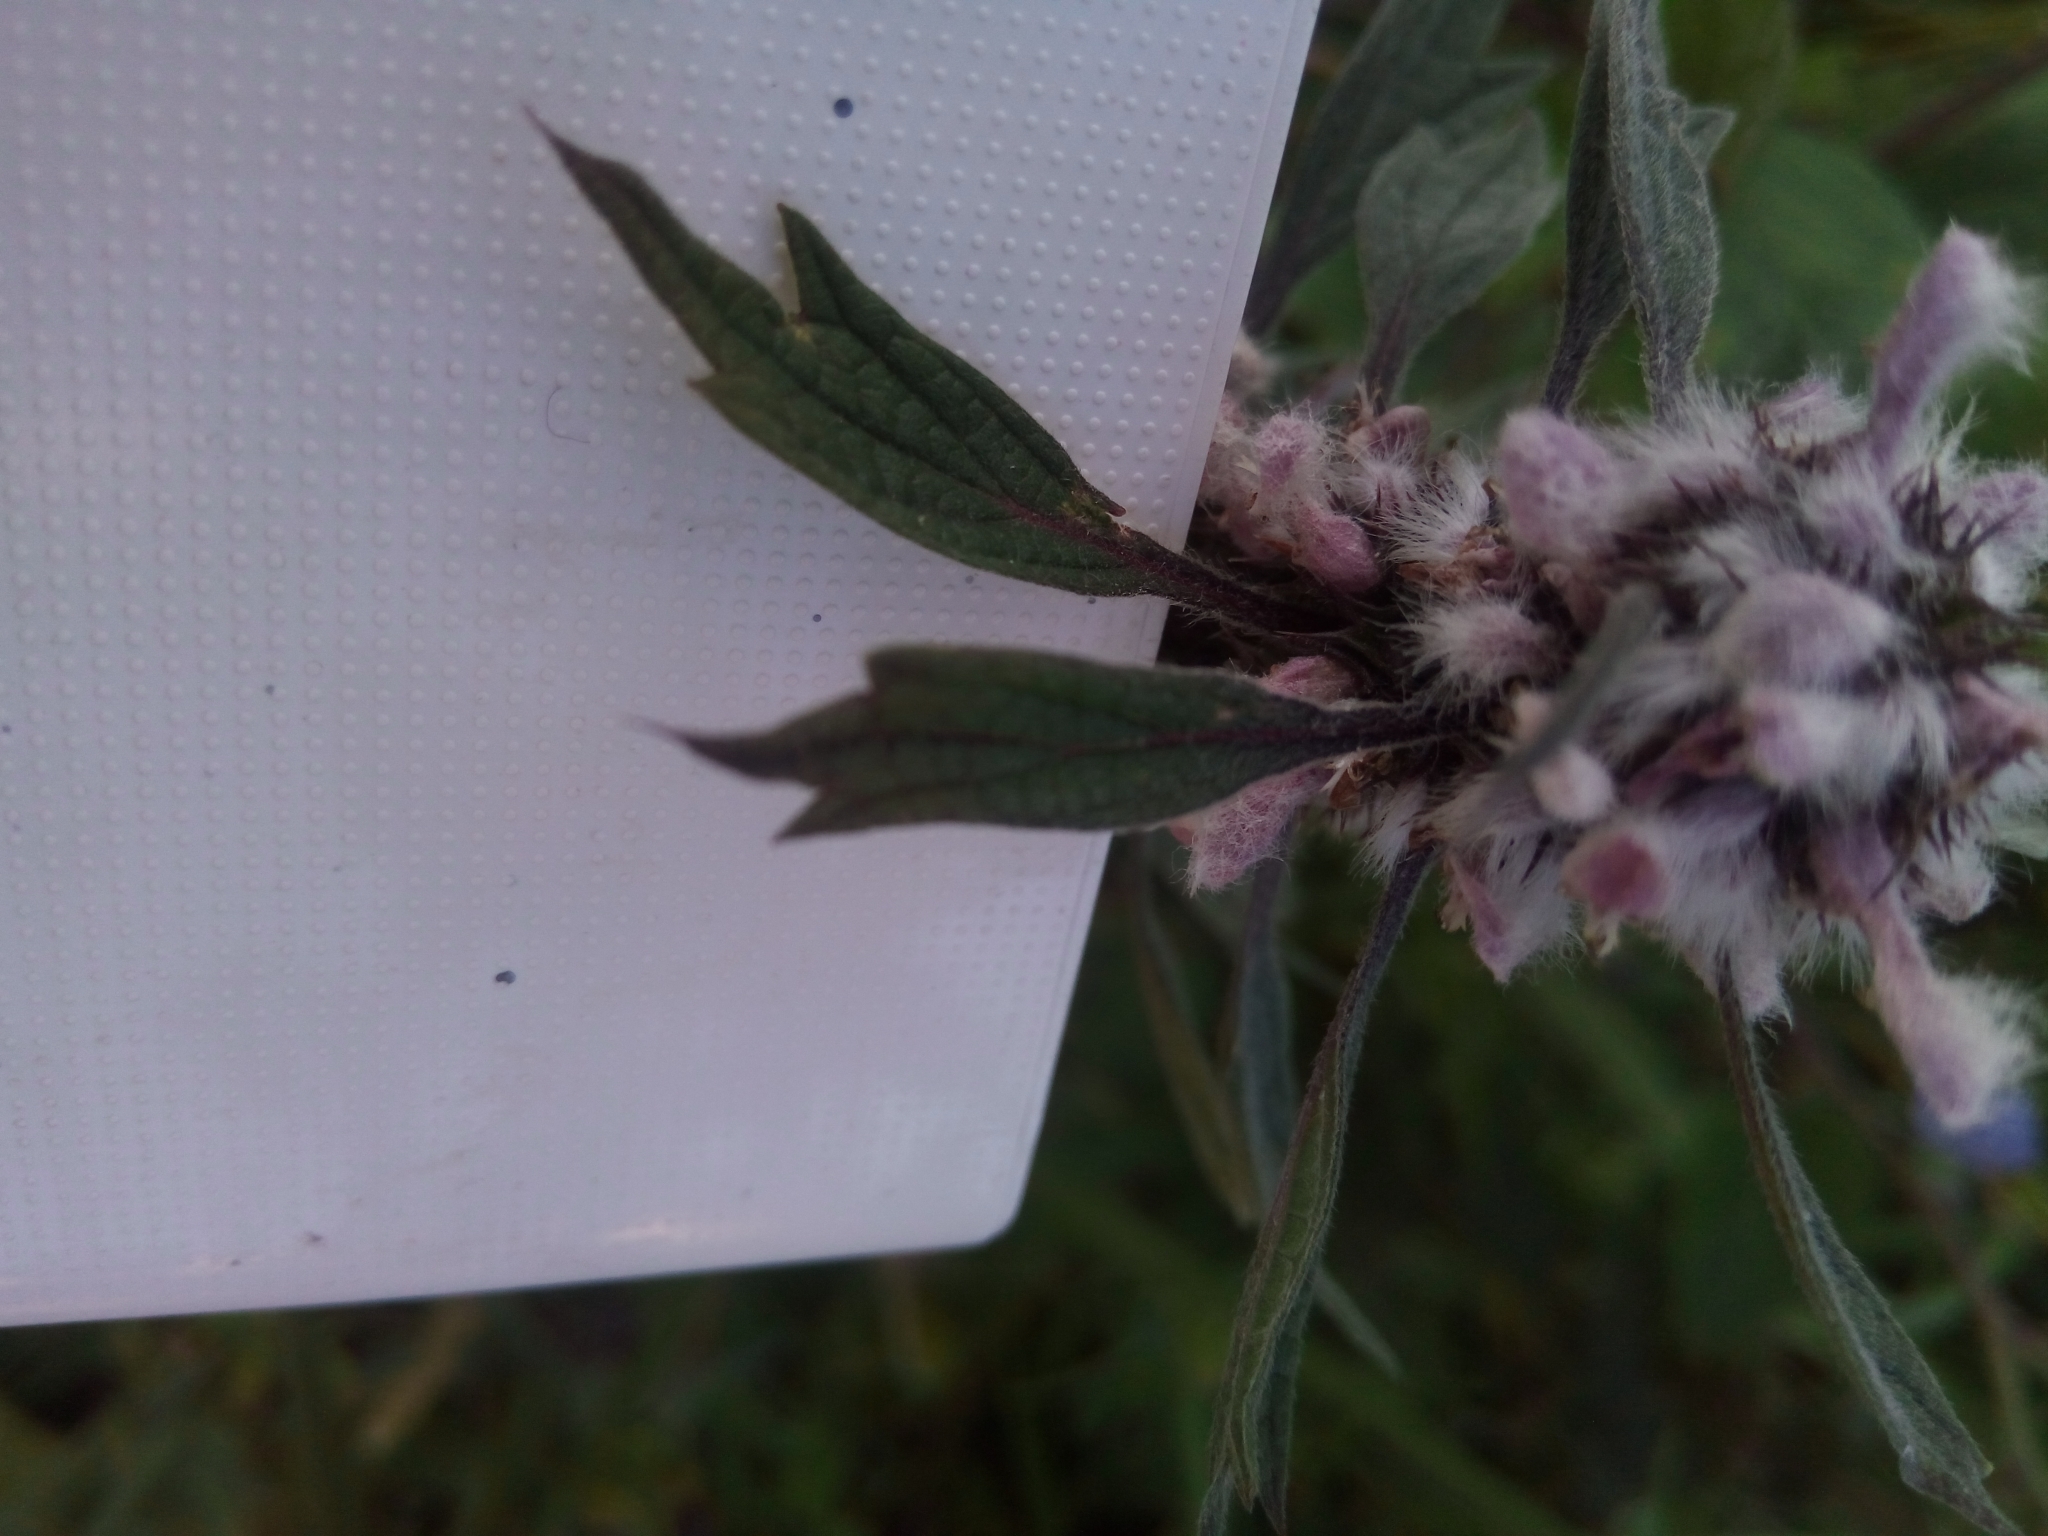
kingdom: Plantae
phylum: Tracheophyta
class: Magnoliopsida
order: Lamiales
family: Lamiaceae
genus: Leonurus
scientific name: Leonurus quinquelobatus
